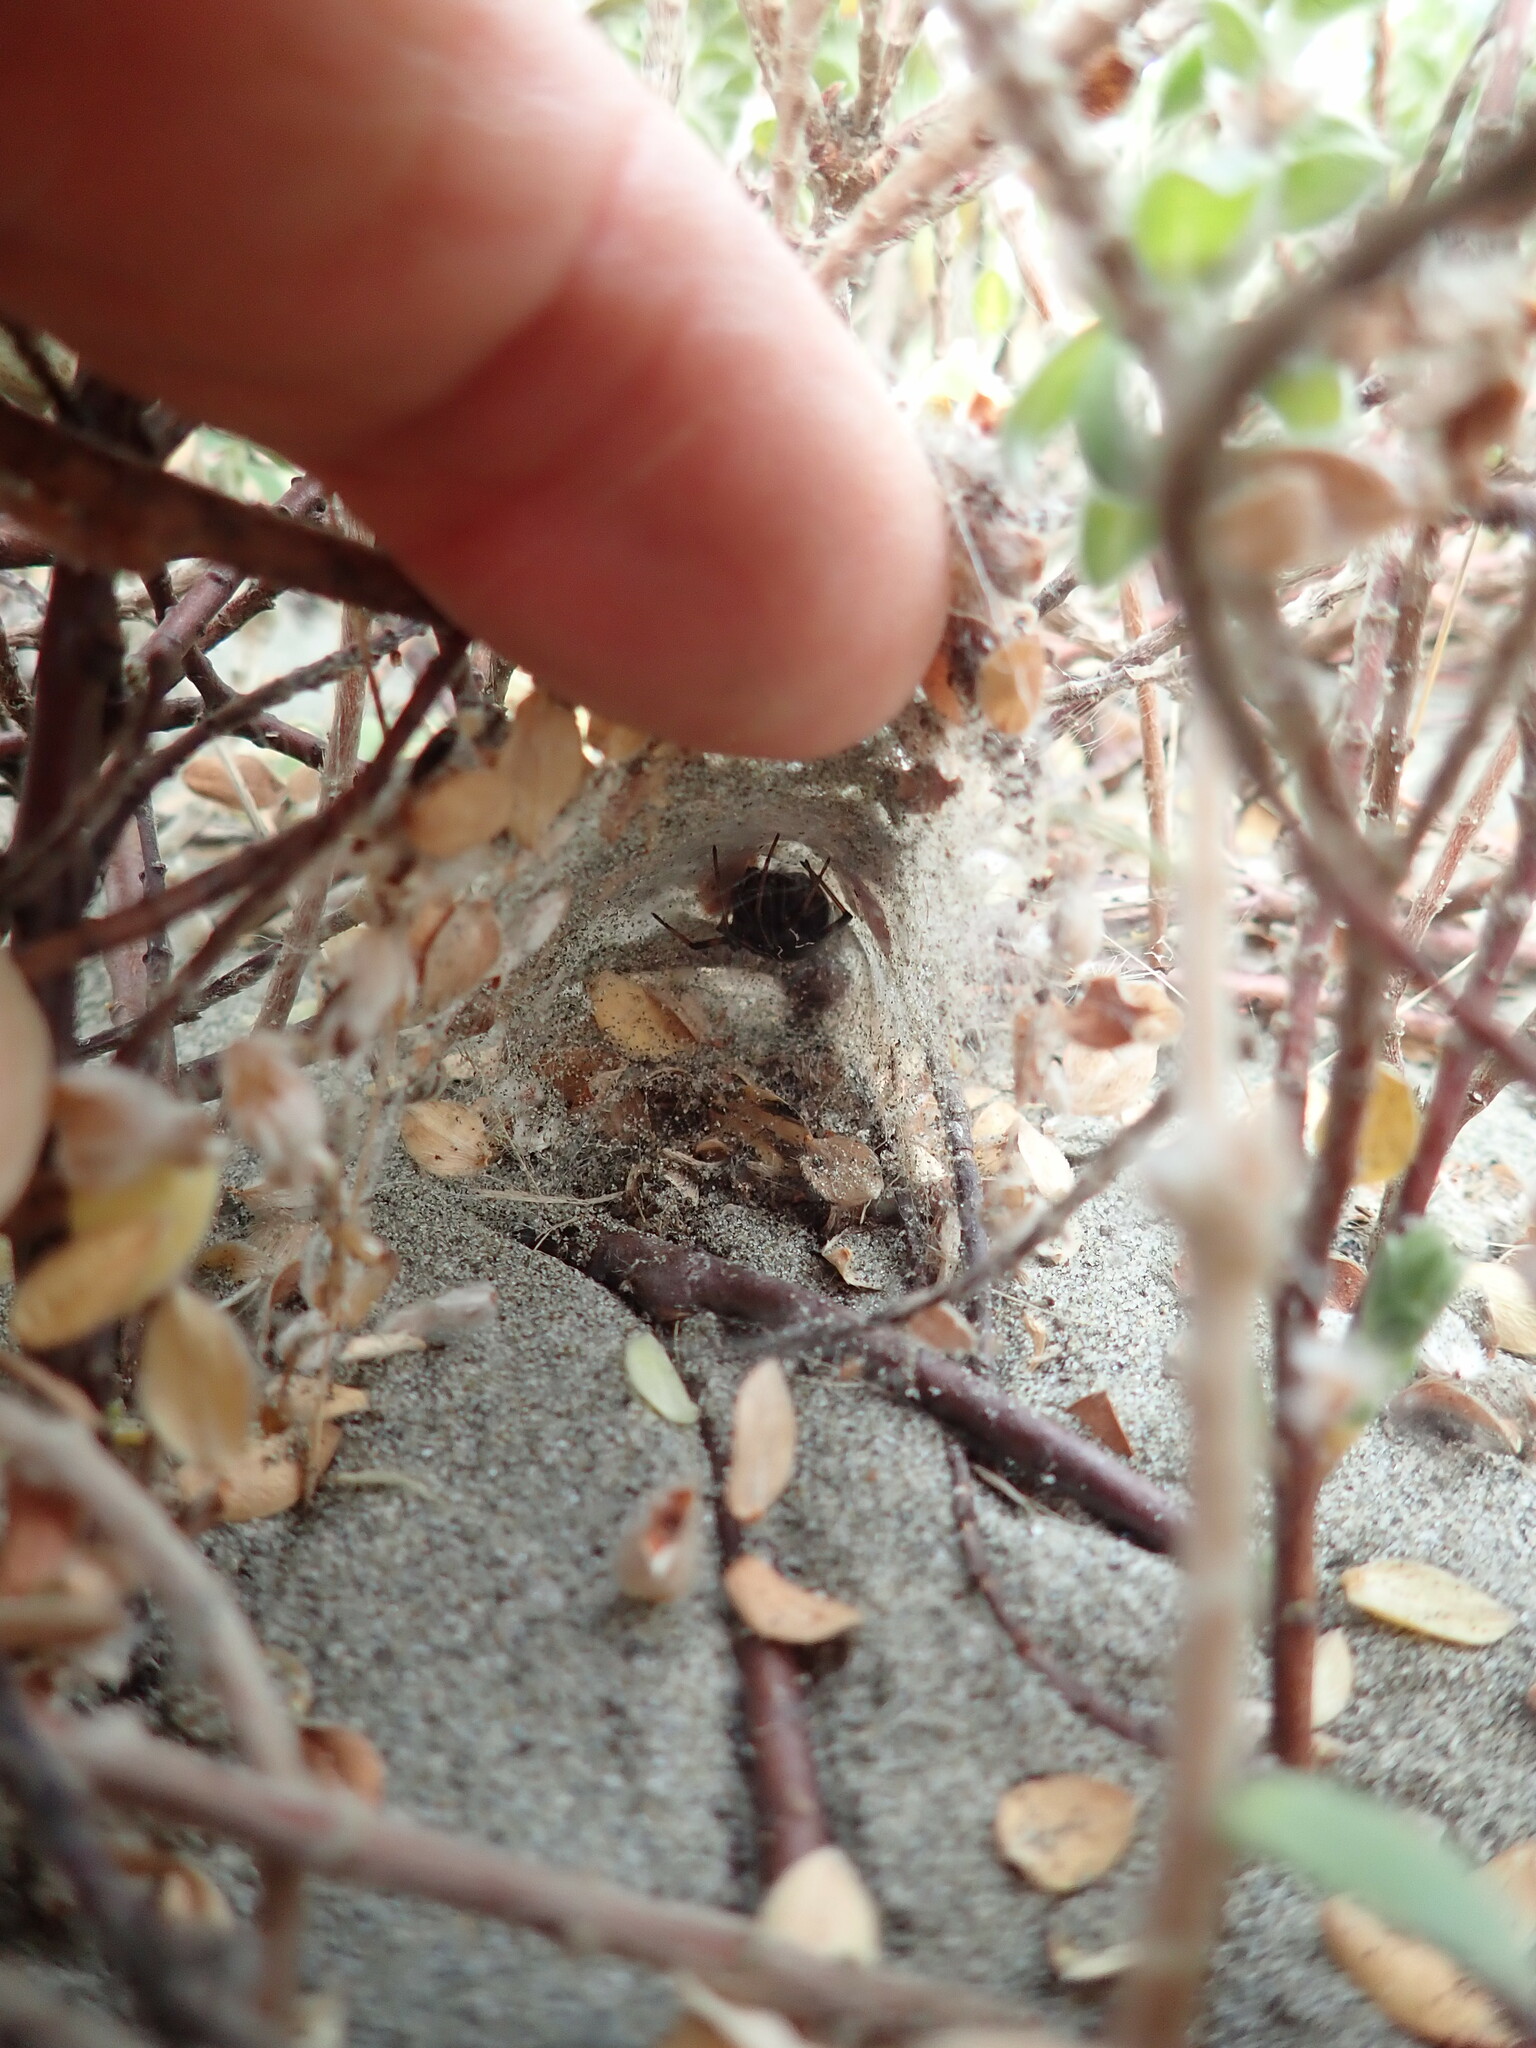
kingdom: Plantae
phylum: Tracheophyta
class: Magnoliopsida
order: Malvales
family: Thymelaeaceae
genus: Pimelea
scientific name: Pimelea villosa
